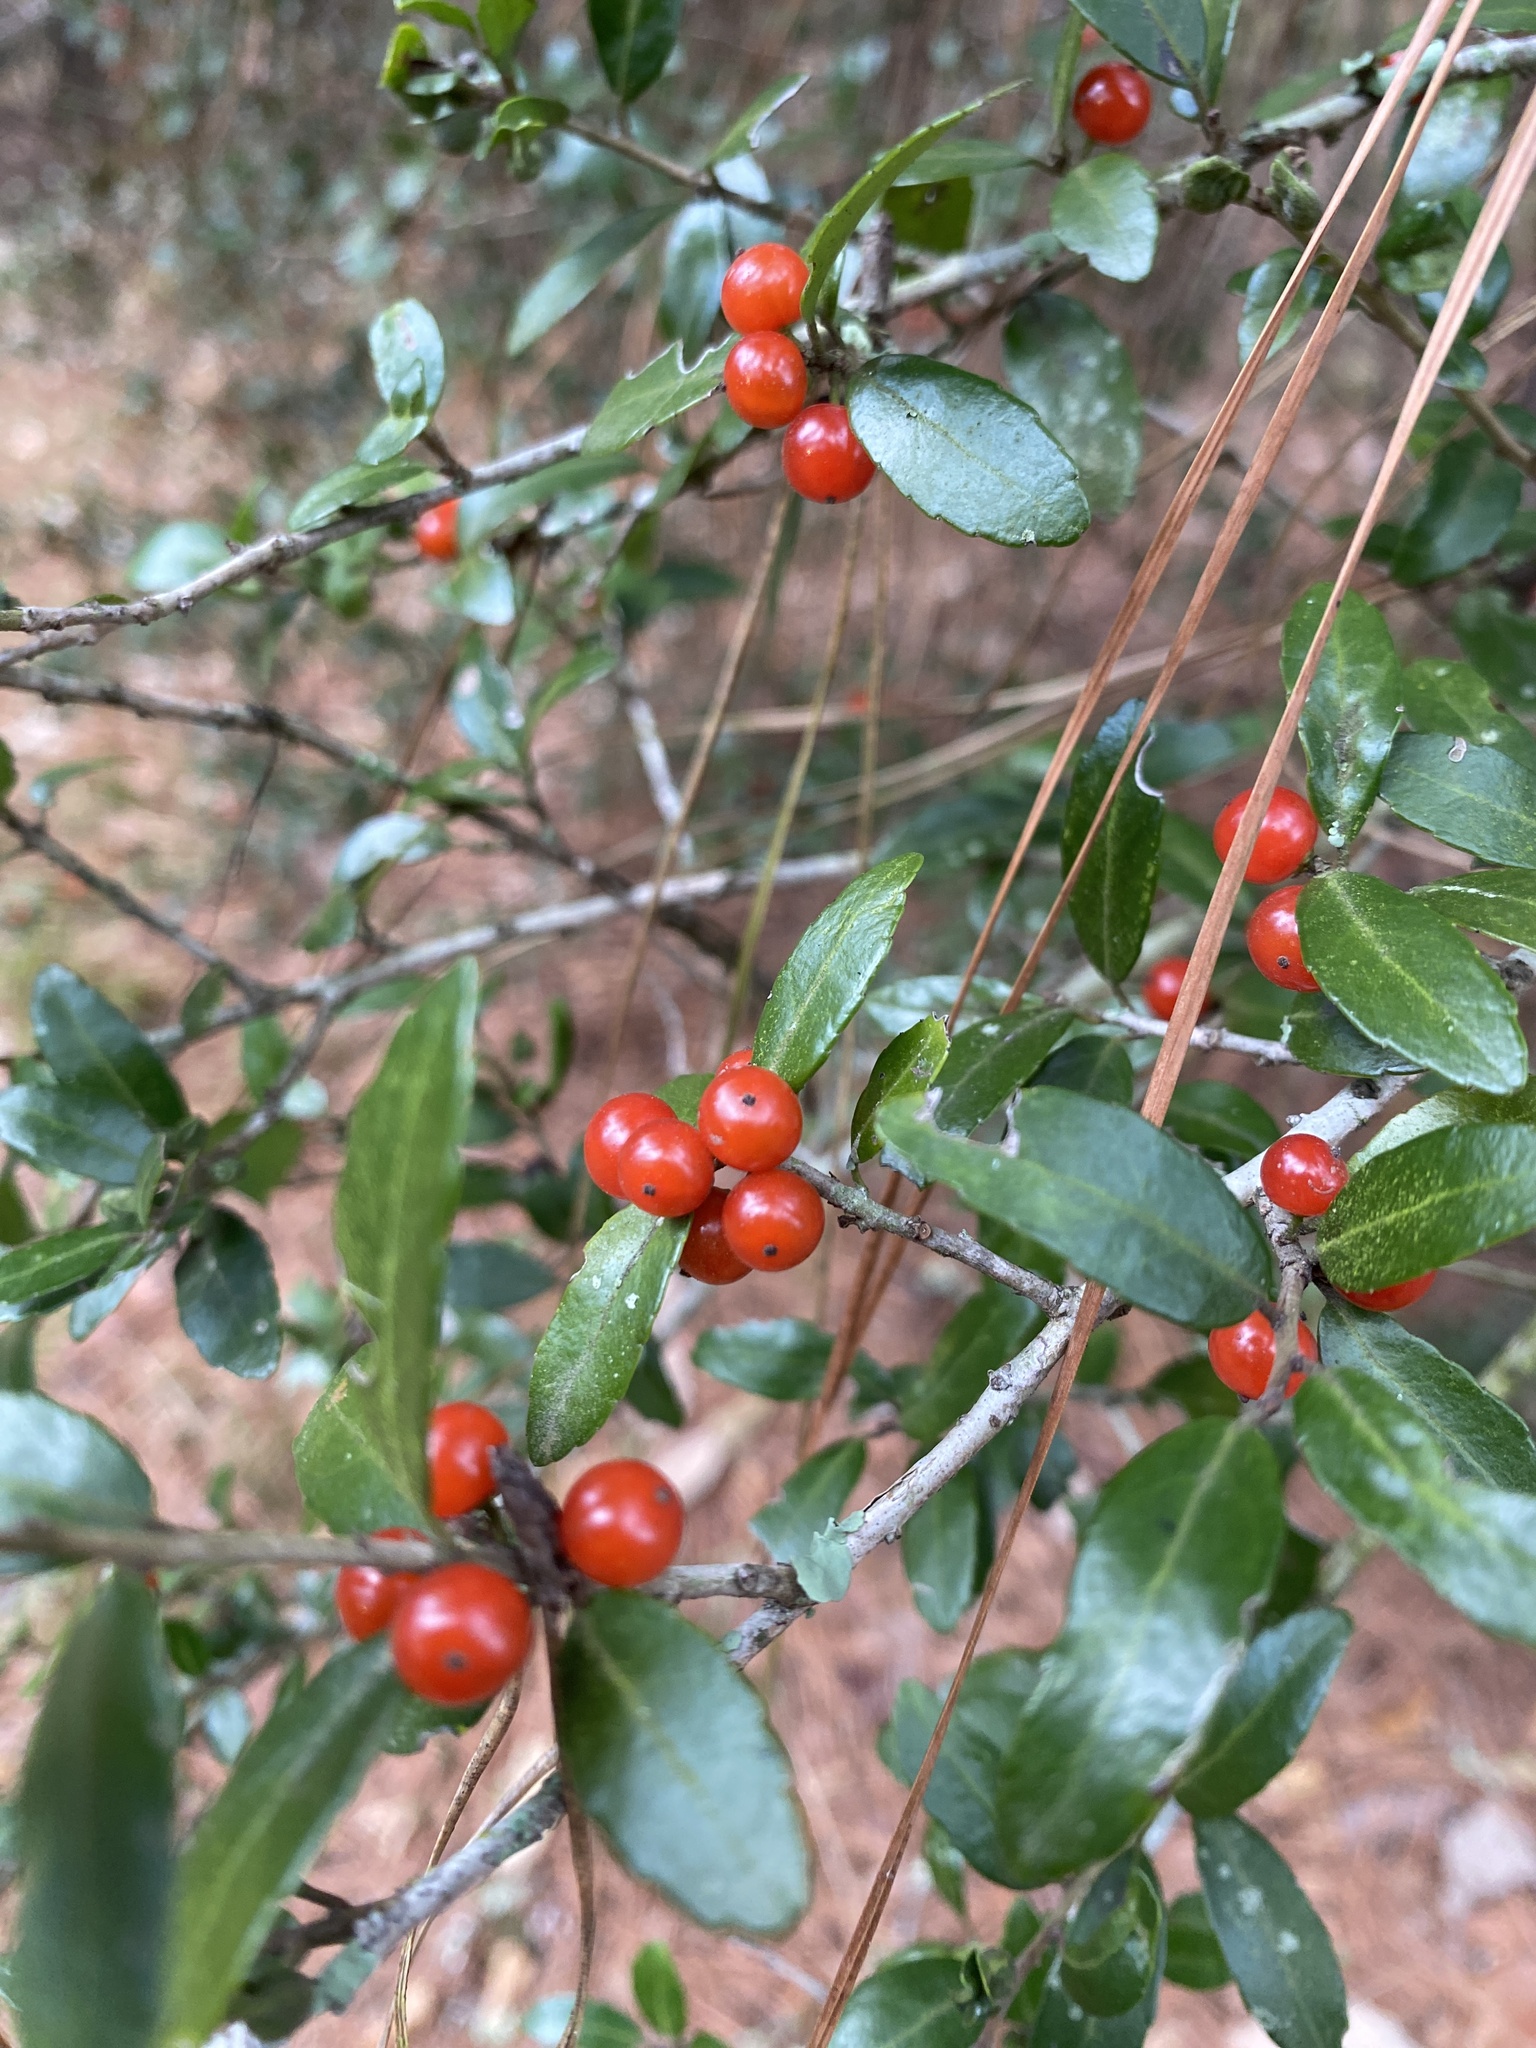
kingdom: Plantae
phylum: Tracheophyta
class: Magnoliopsida
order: Aquifoliales
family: Aquifoliaceae
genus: Ilex
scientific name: Ilex vomitoria
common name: Yaupon holly
